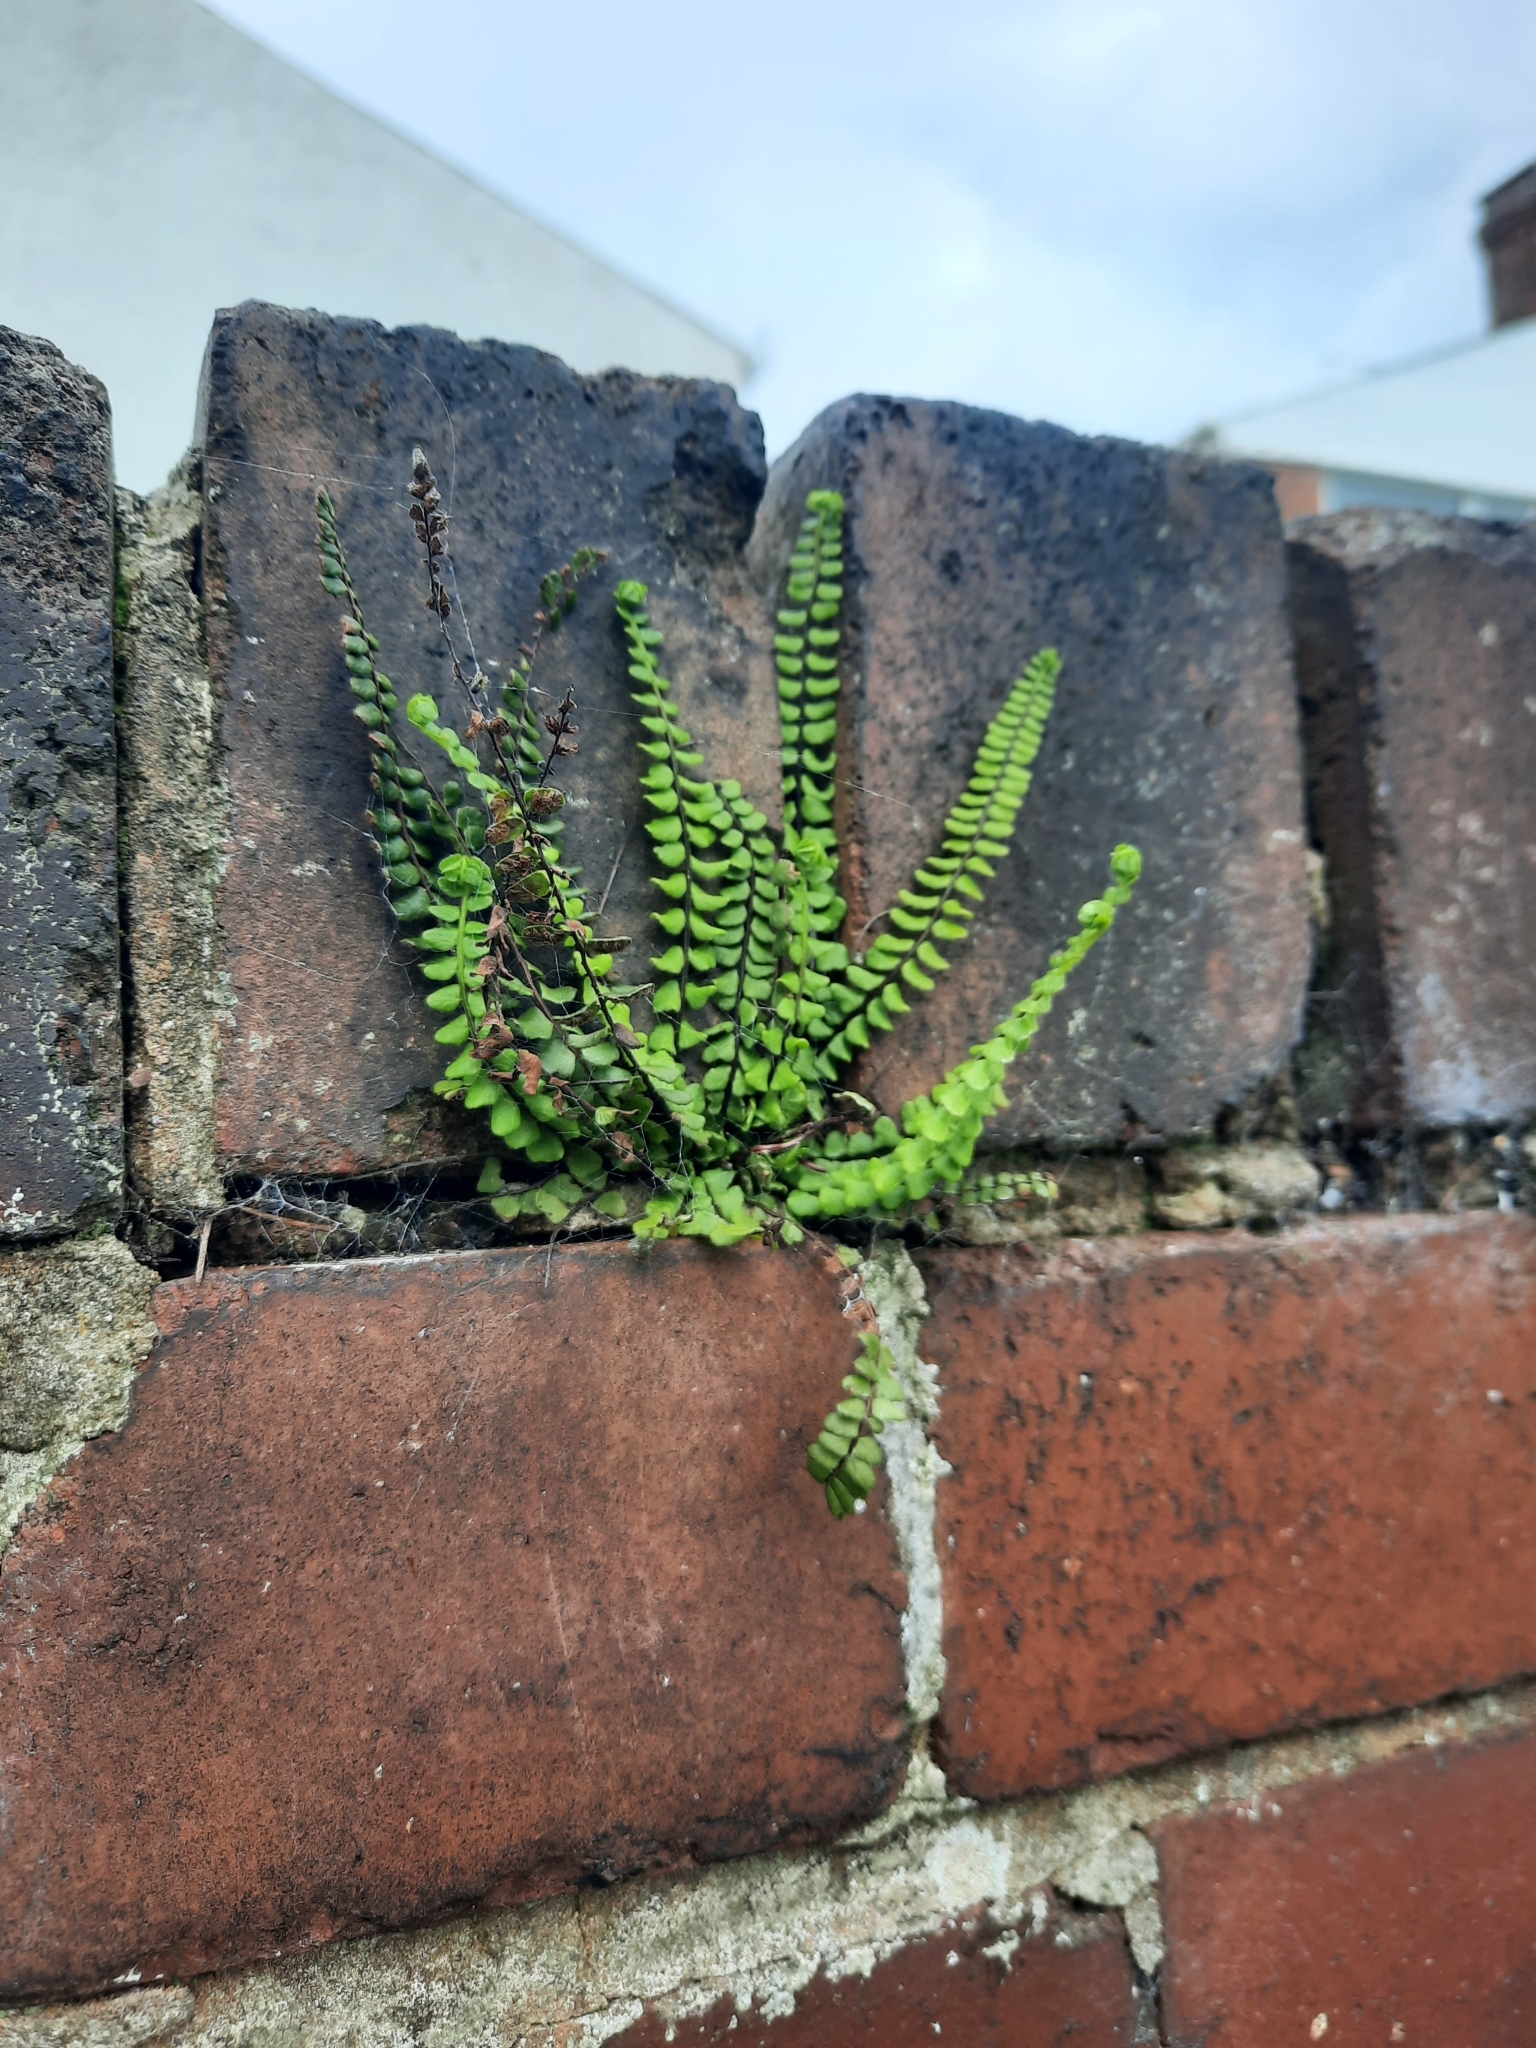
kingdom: Plantae
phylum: Tracheophyta
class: Polypodiopsida
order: Polypodiales
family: Aspleniaceae
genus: Asplenium
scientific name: Asplenium trichomanes
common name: Maidenhair spleenwort
